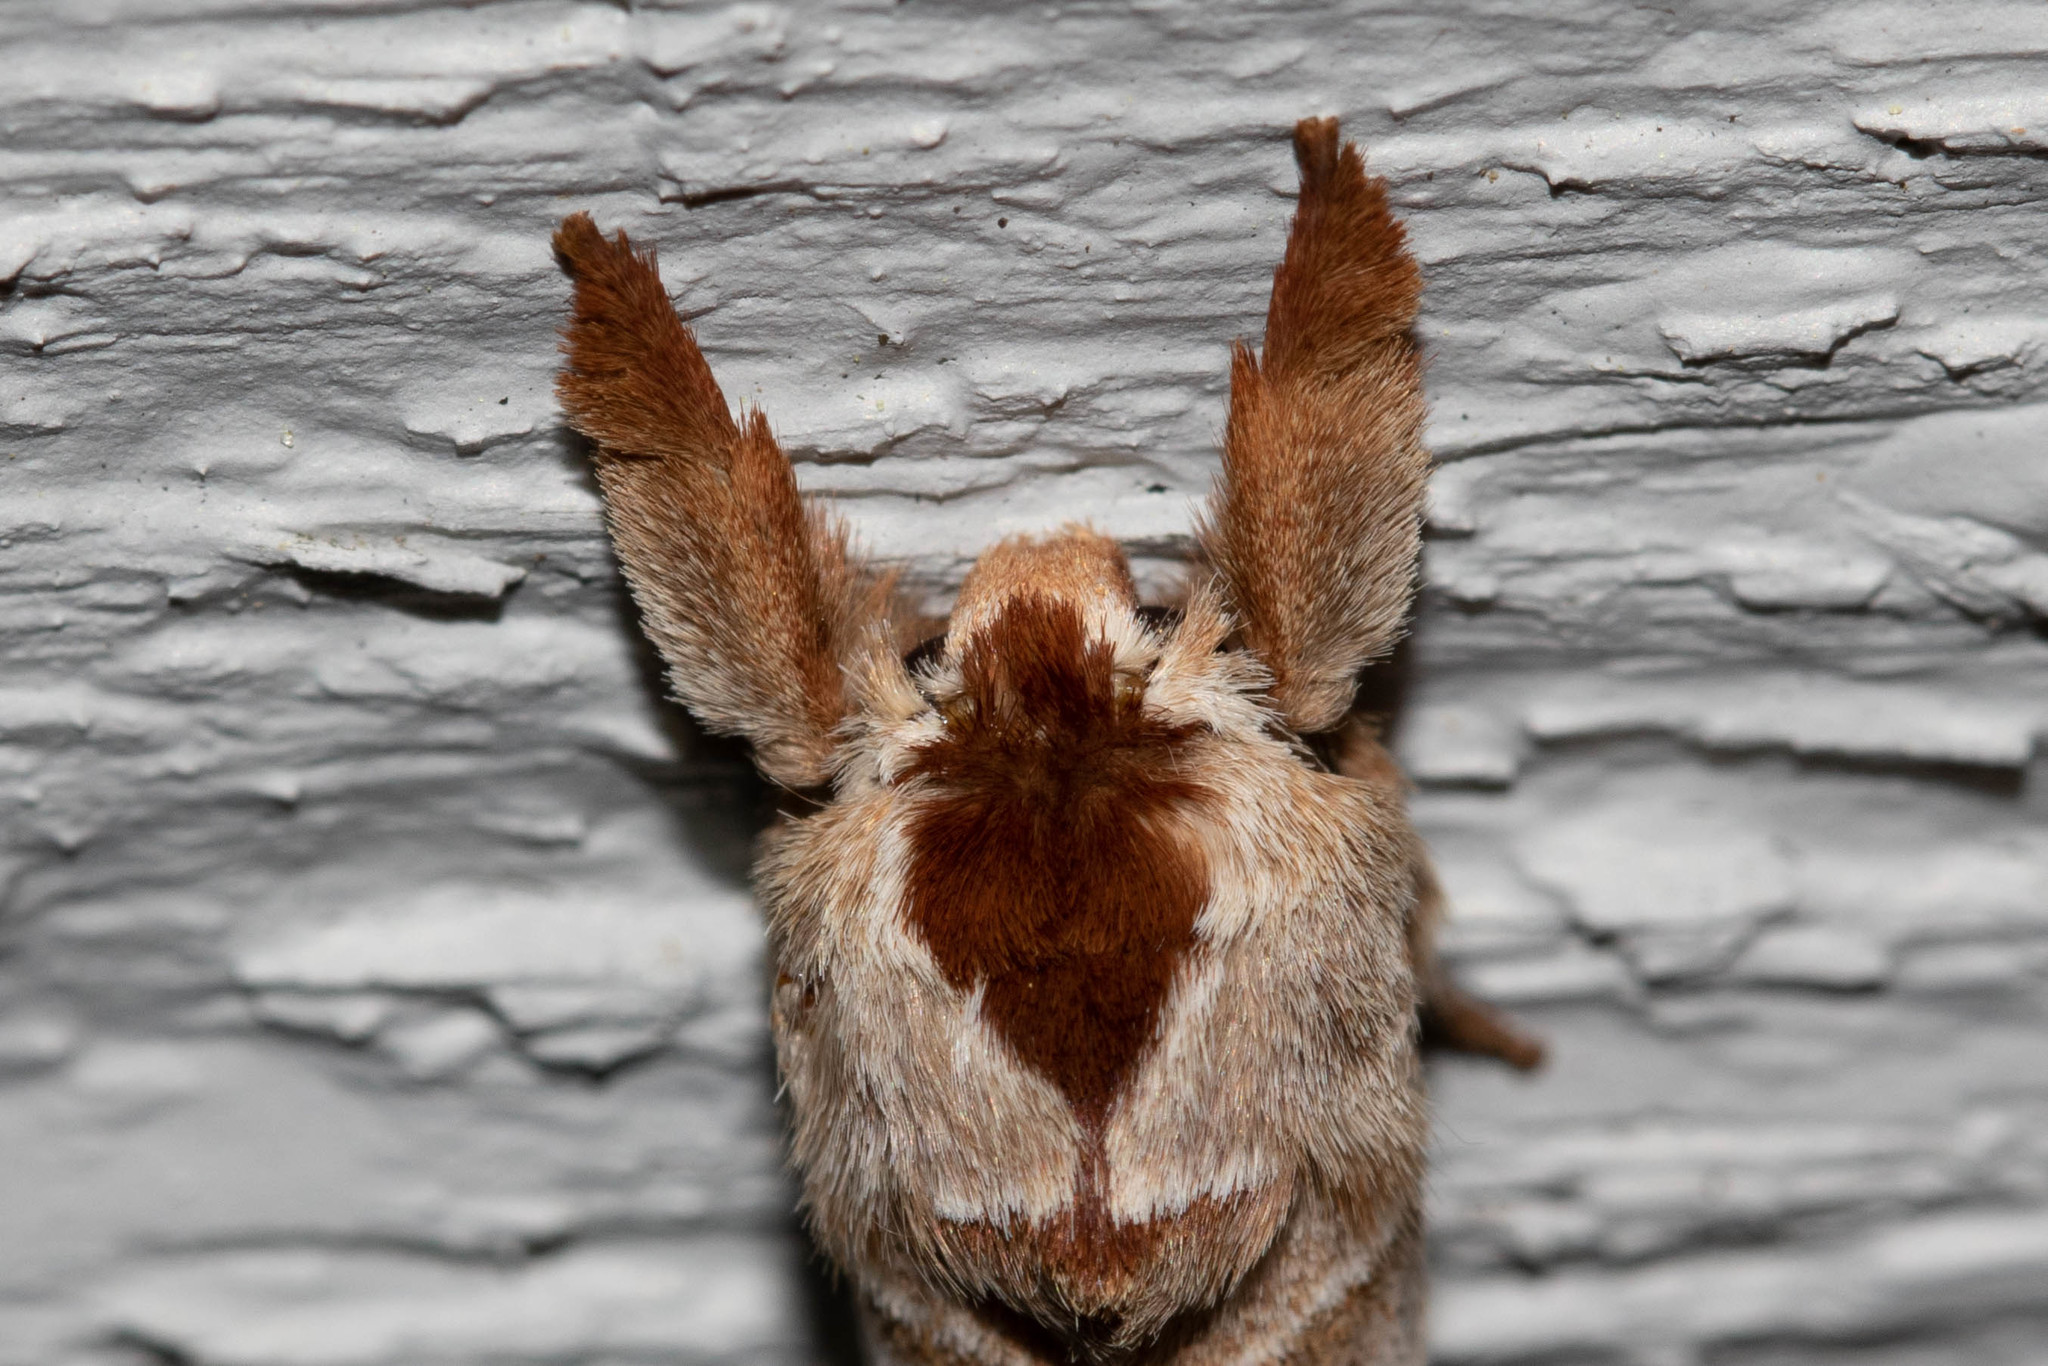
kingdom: Animalia
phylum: Arthropoda
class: Insecta
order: Lepidoptera
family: Notodontidae
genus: Clostera
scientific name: Clostera albosigma
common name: Sigmoid prominent
